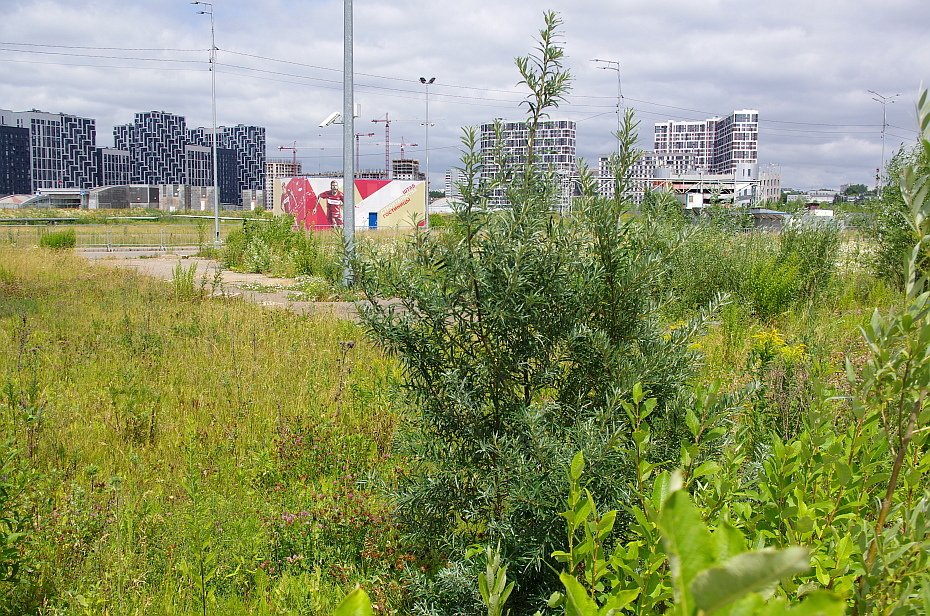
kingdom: Plantae
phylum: Tracheophyta
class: Magnoliopsida
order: Rosales
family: Elaeagnaceae
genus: Hippophae
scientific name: Hippophae rhamnoides
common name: Sea-buckthorn
